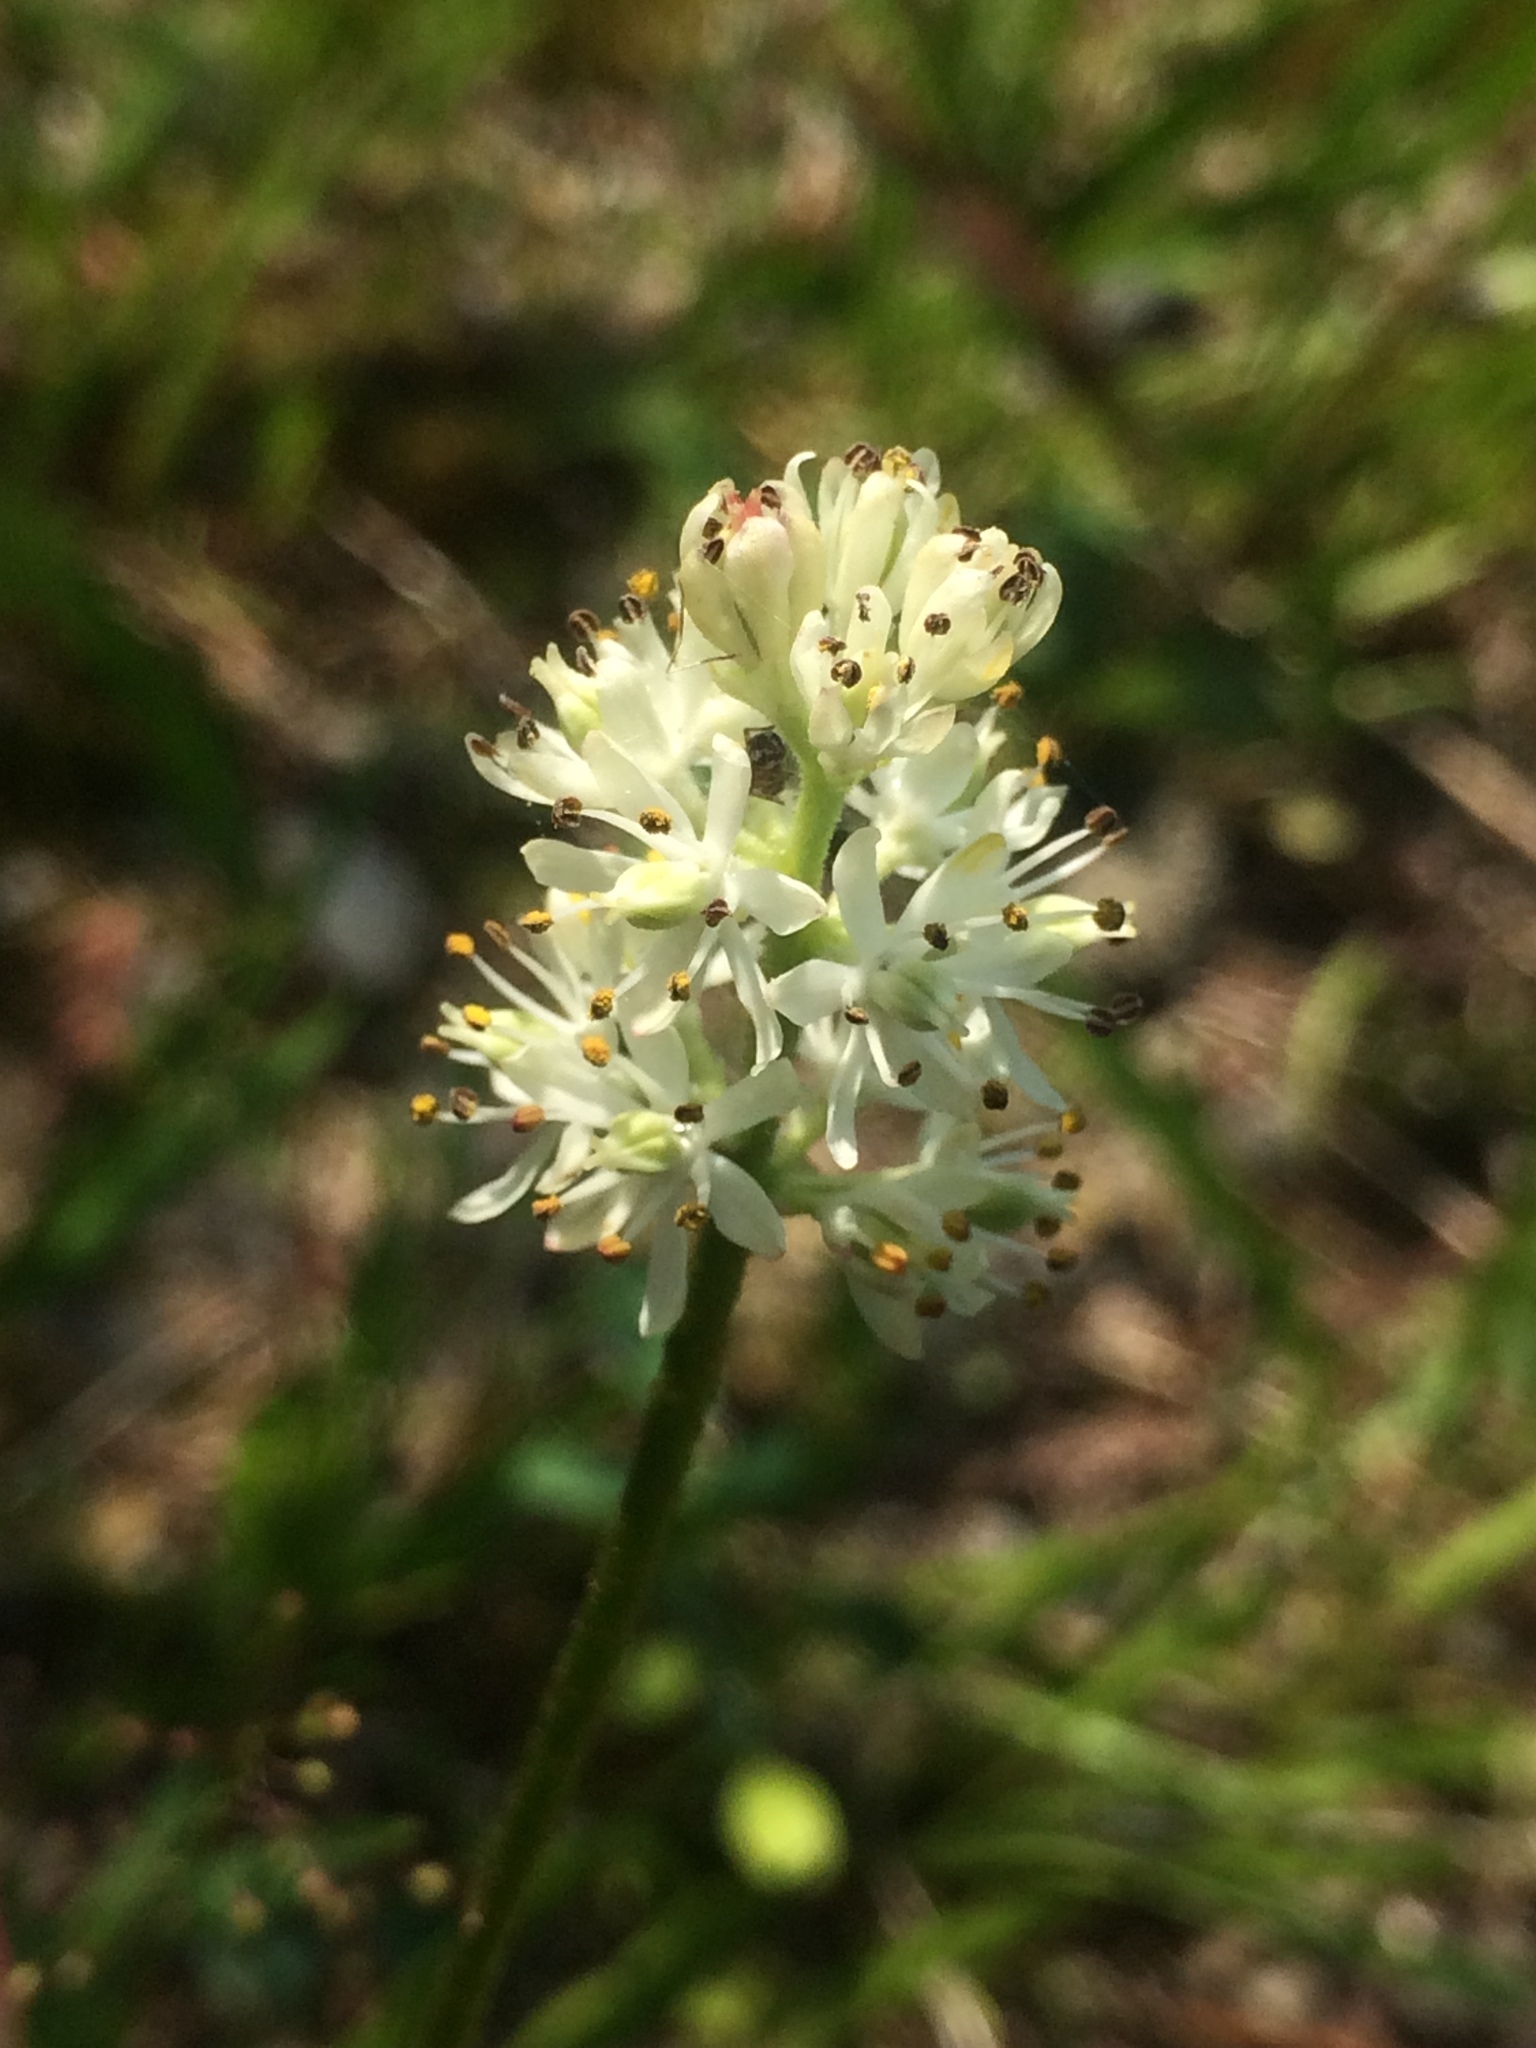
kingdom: Plantae
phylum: Tracheophyta
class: Liliopsida
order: Alismatales
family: Tofieldiaceae
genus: Triantha
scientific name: Triantha glutinosa
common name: Glutinous tofieldia
